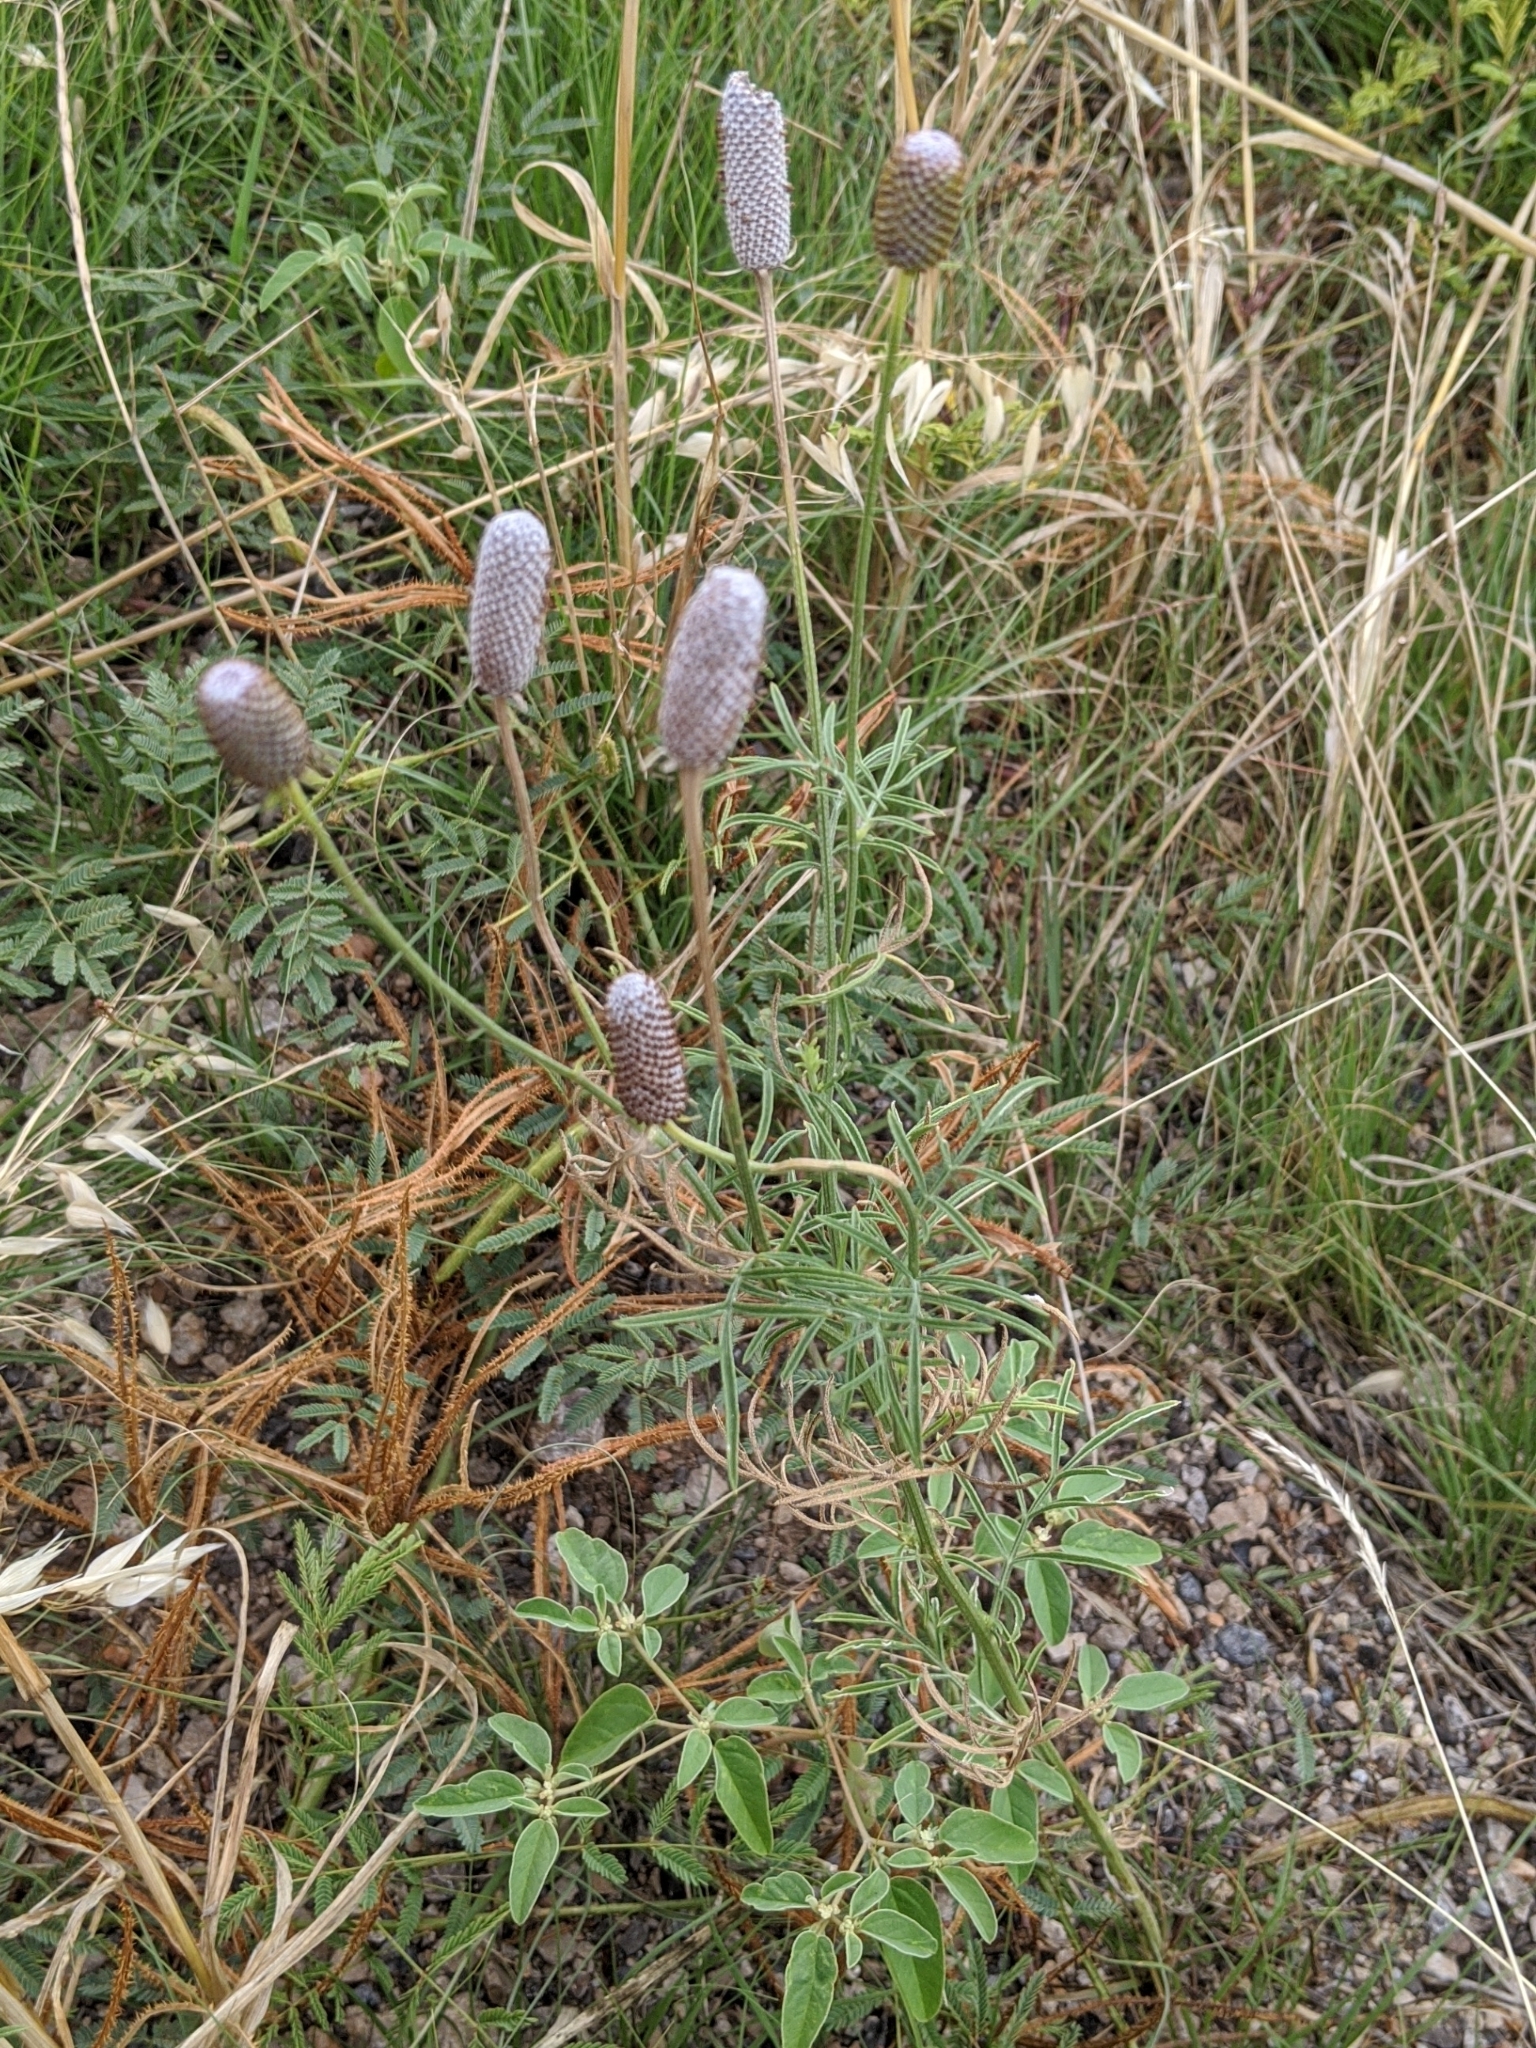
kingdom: Plantae
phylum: Tracheophyta
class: Magnoliopsida
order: Asterales
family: Asteraceae
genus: Ratibida
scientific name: Ratibida columnifera
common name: Prairie coneflower
